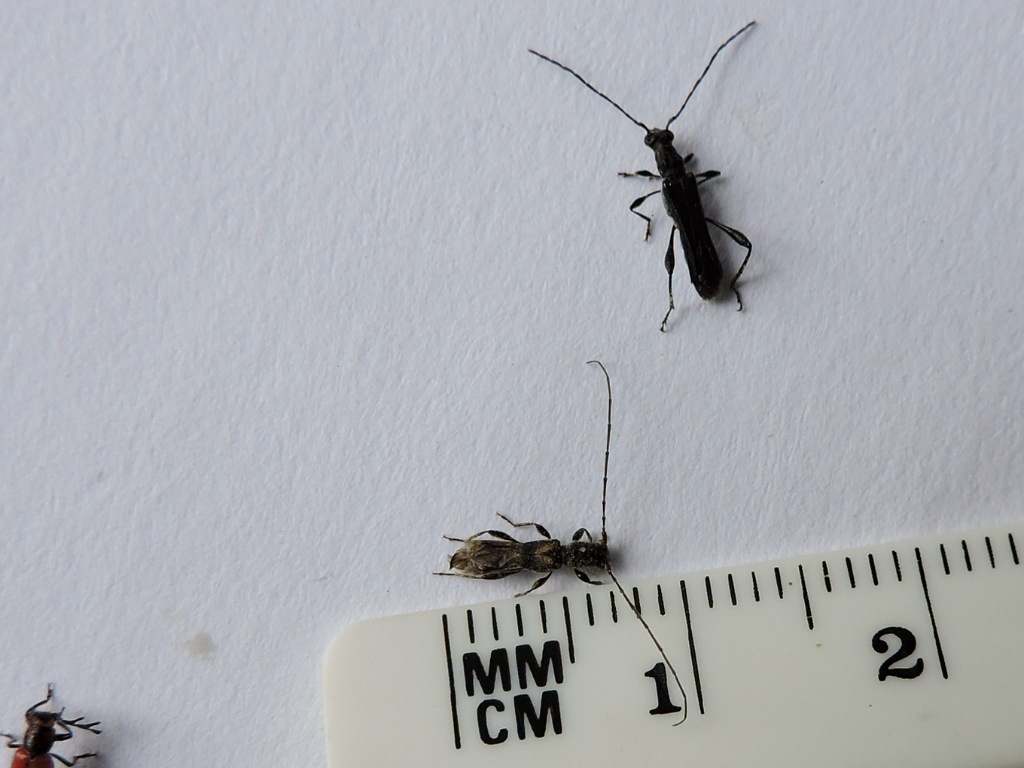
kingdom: Animalia
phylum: Arthropoda
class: Insecta
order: Coleoptera
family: Cerambycidae
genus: Molorchus
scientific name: Molorchus bimaculatus
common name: Bimaculate longhorn beetle
